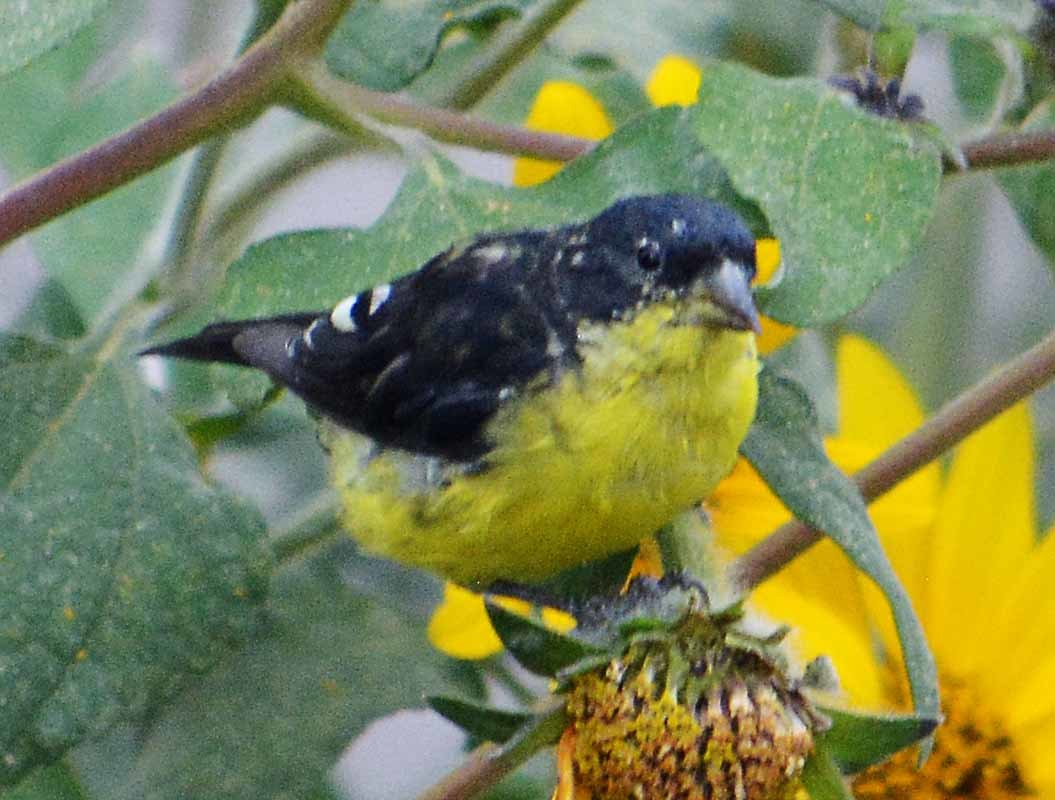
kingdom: Animalia
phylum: Chordata
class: Aves
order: Passeriformes
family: Fringillidae
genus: Spinus
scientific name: Spinus psaltria
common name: Lesser goldfinch
